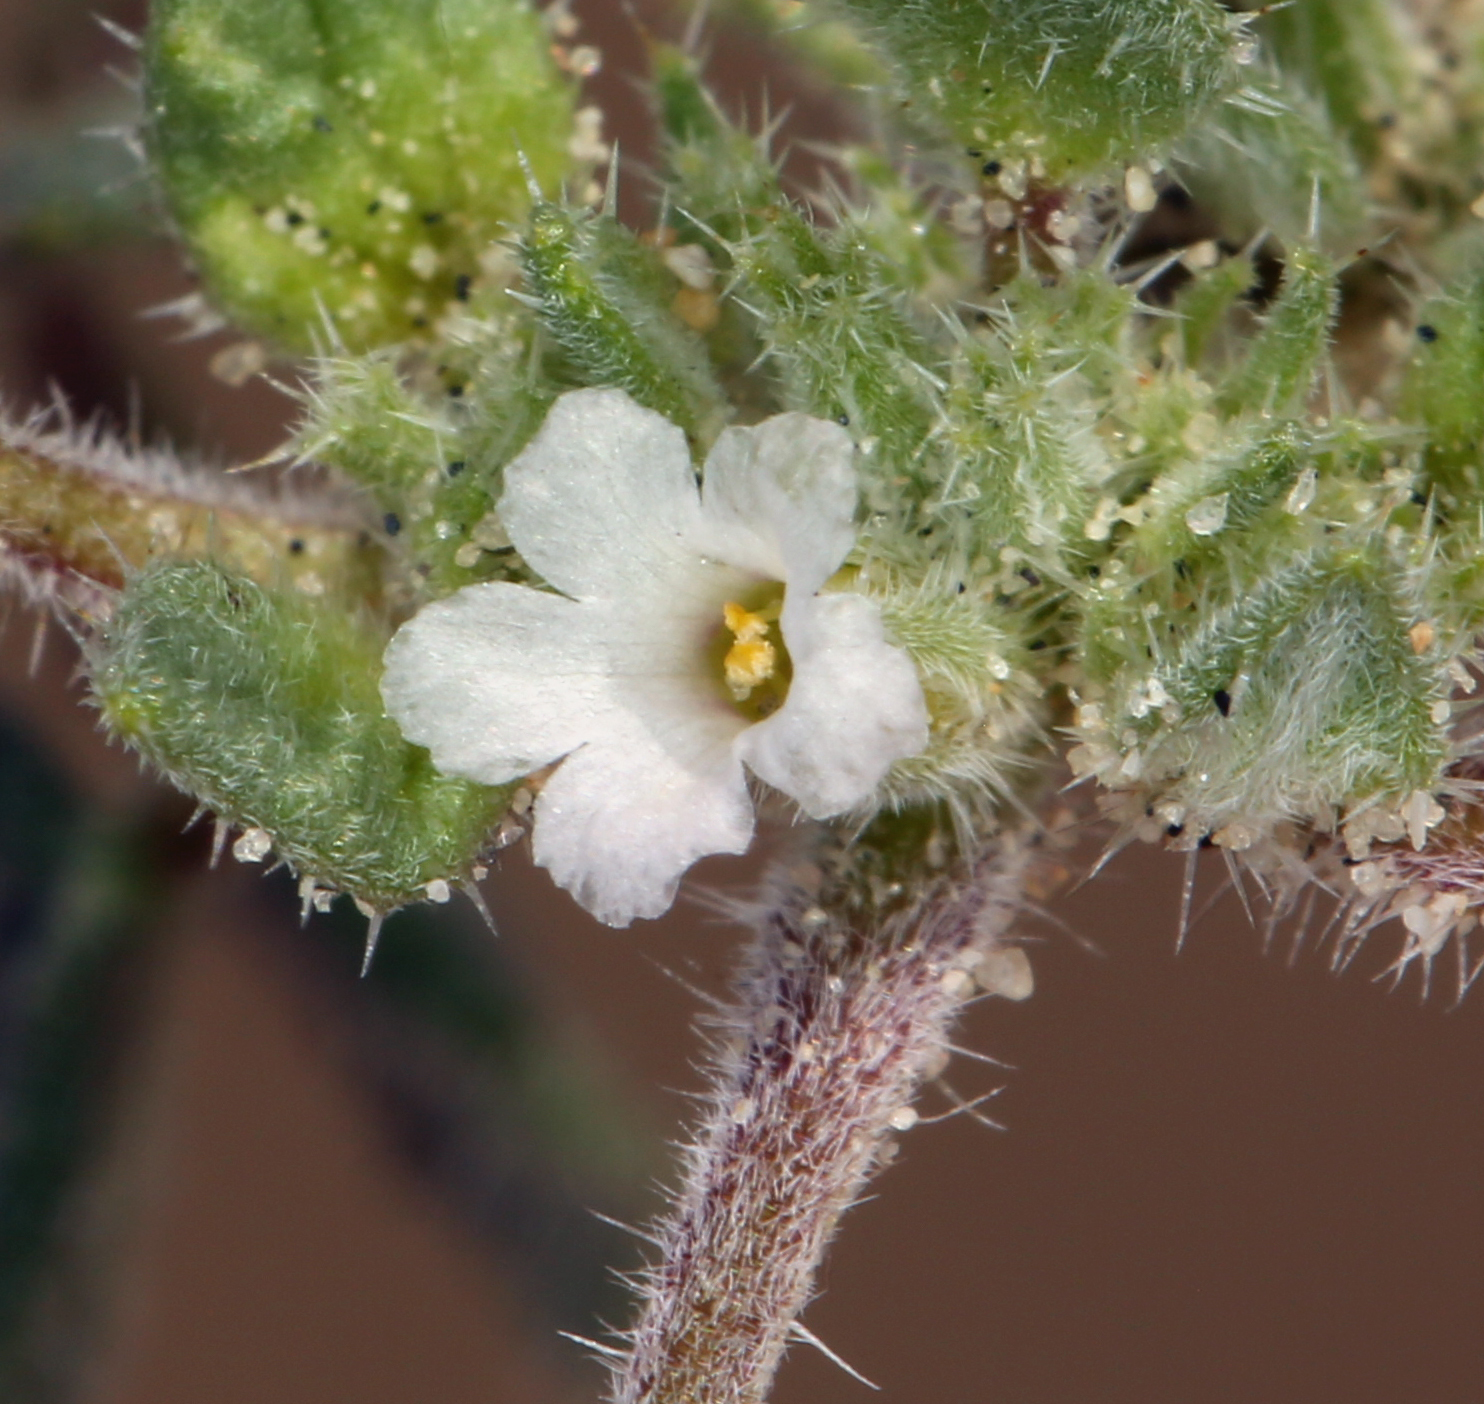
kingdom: Plantae
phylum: Tracheophyta
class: Magnoliopsida
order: Boraginales
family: Ehretiaceae
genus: Tiquilia
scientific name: Tiquilia nuttallii
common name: Rosette tiquilia
